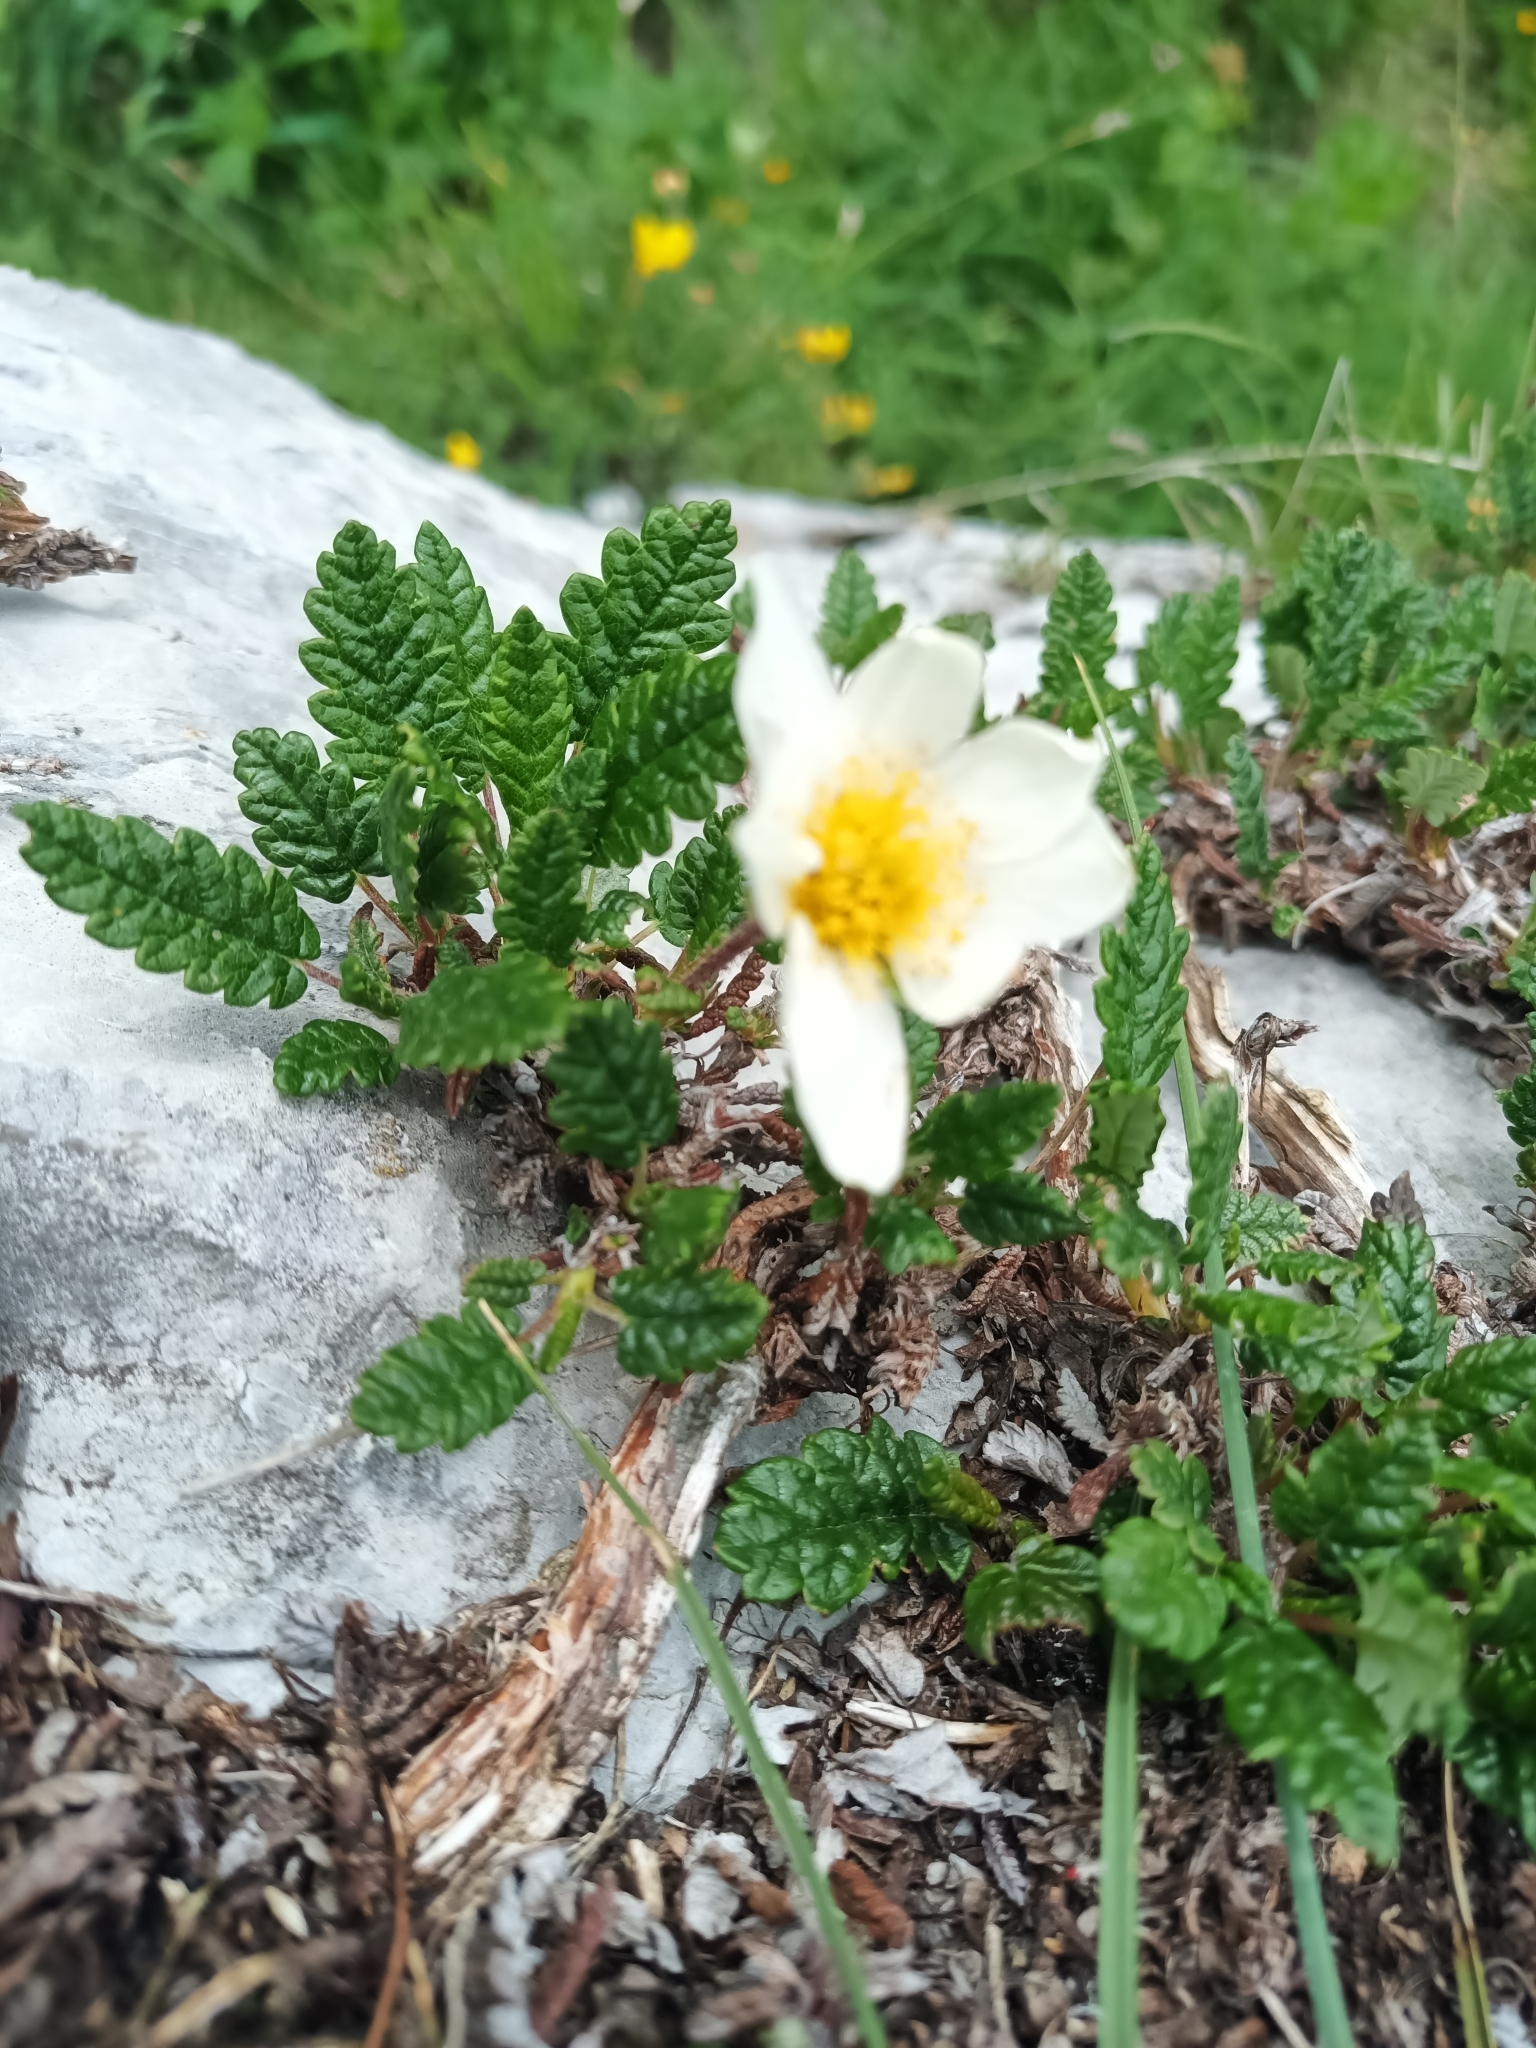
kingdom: Plantae
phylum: Tracheophyta
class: Magnoliopsida
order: Rosales
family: Rosaceae
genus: Dryas
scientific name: Dryas octopetala
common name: Eight-petal mountain-avens
